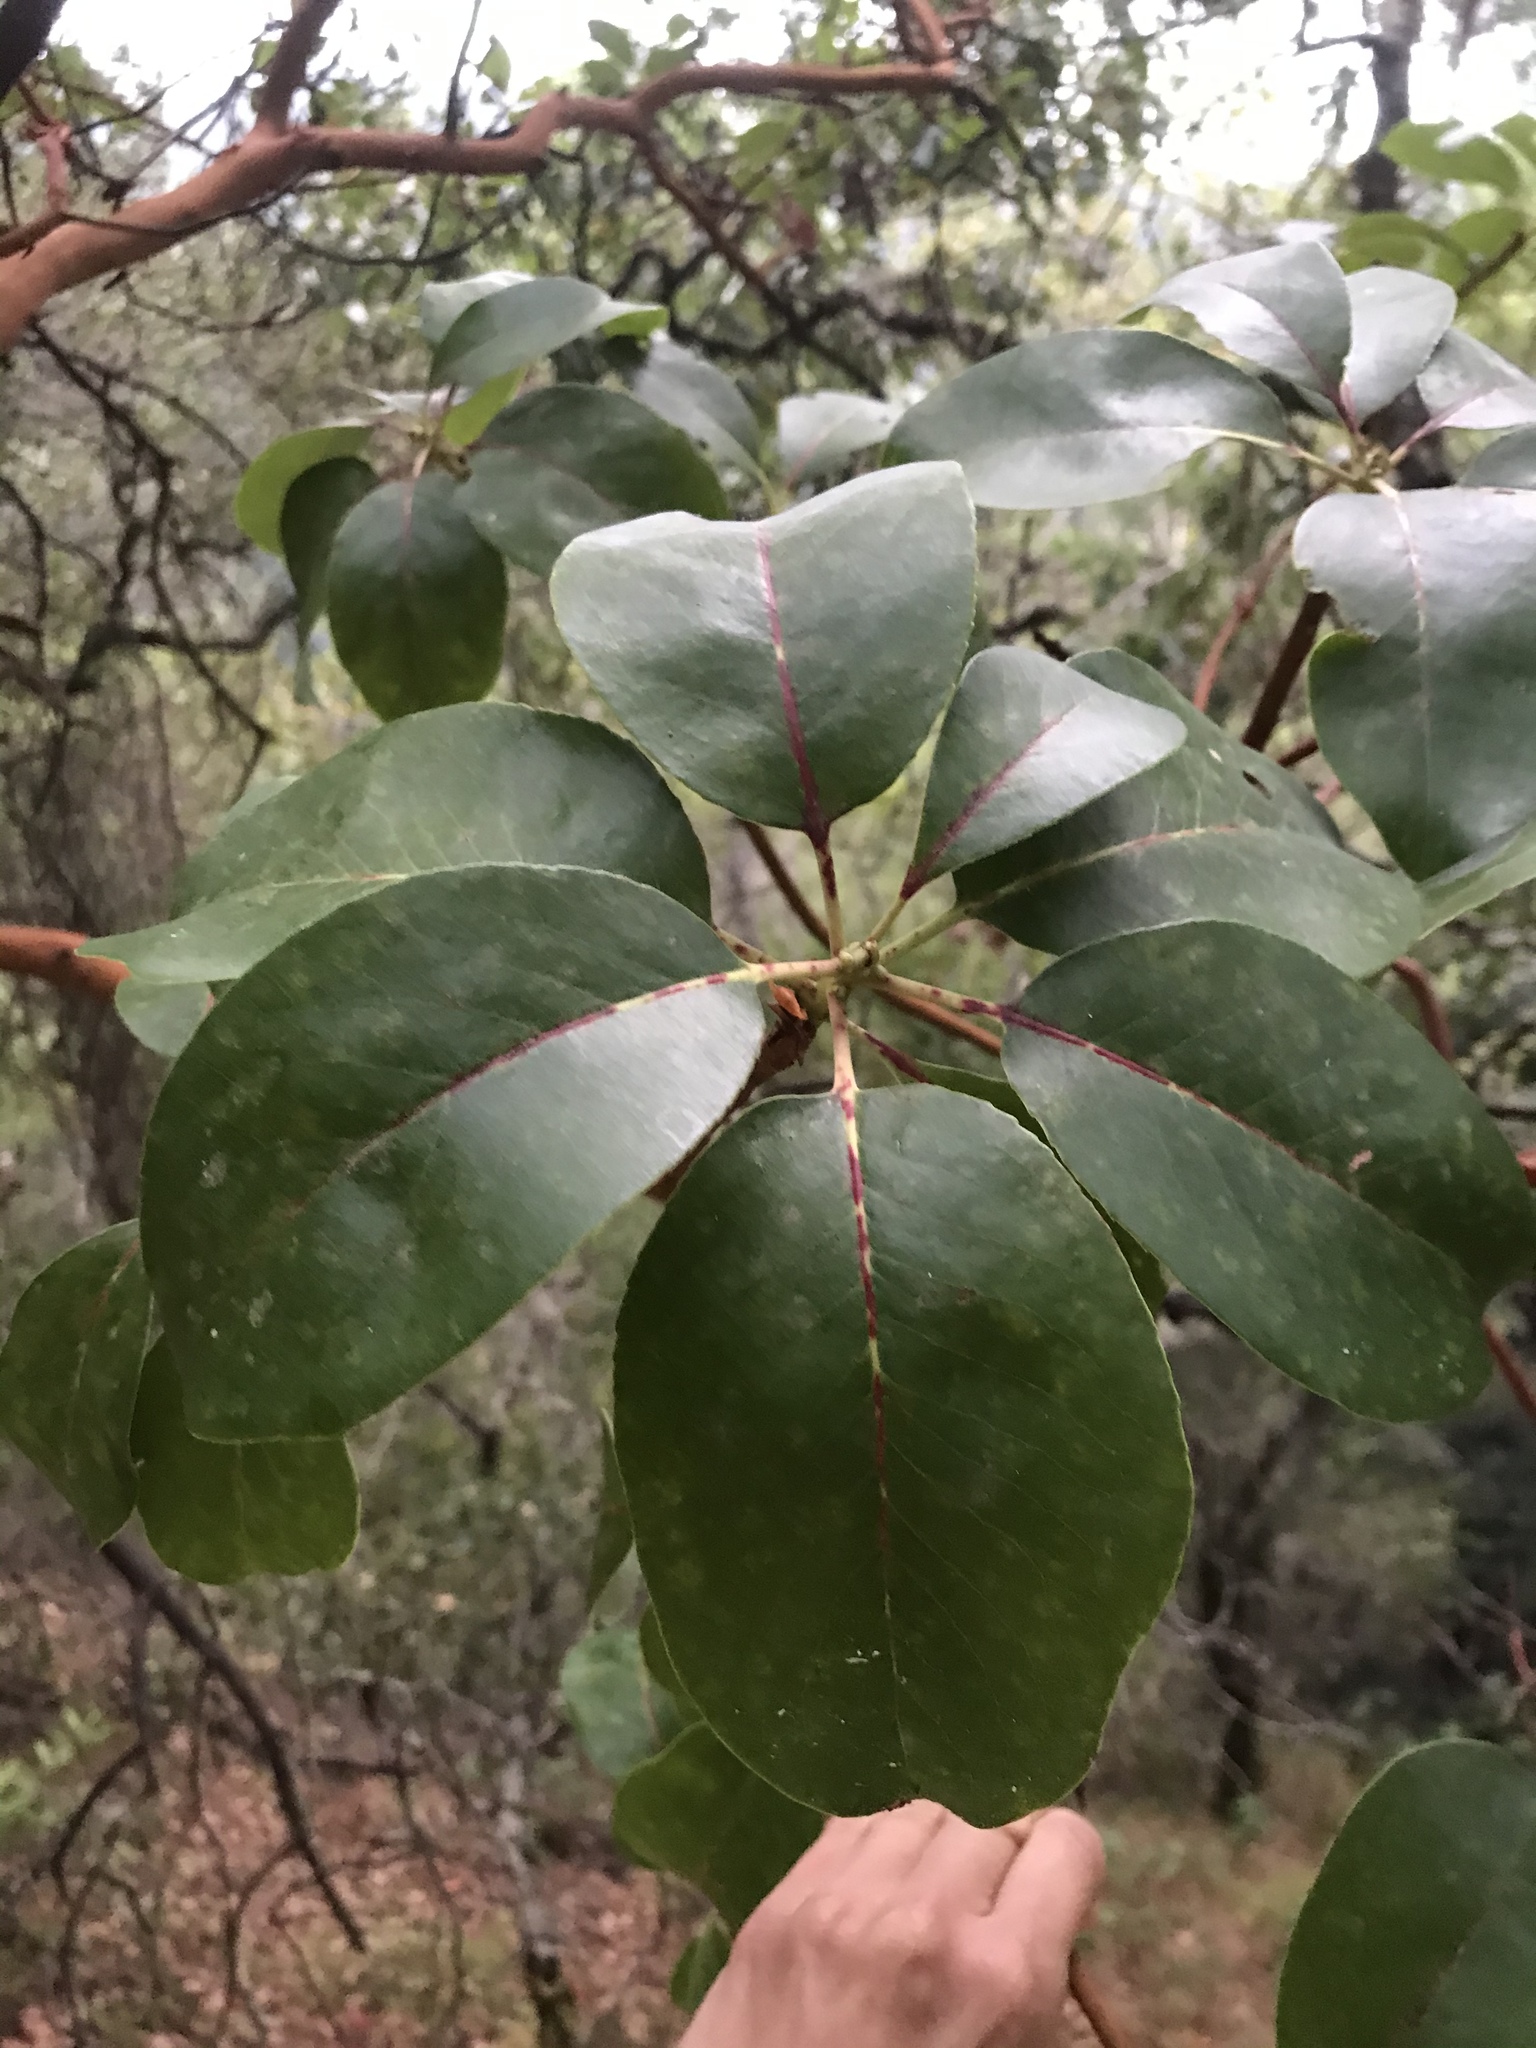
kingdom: Plantae
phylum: Tracheophyta
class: Magnoliopsida
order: Ericales
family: Ericaceae
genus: Arbutus
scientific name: Arbutus menziesii
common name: Pacific madrone
